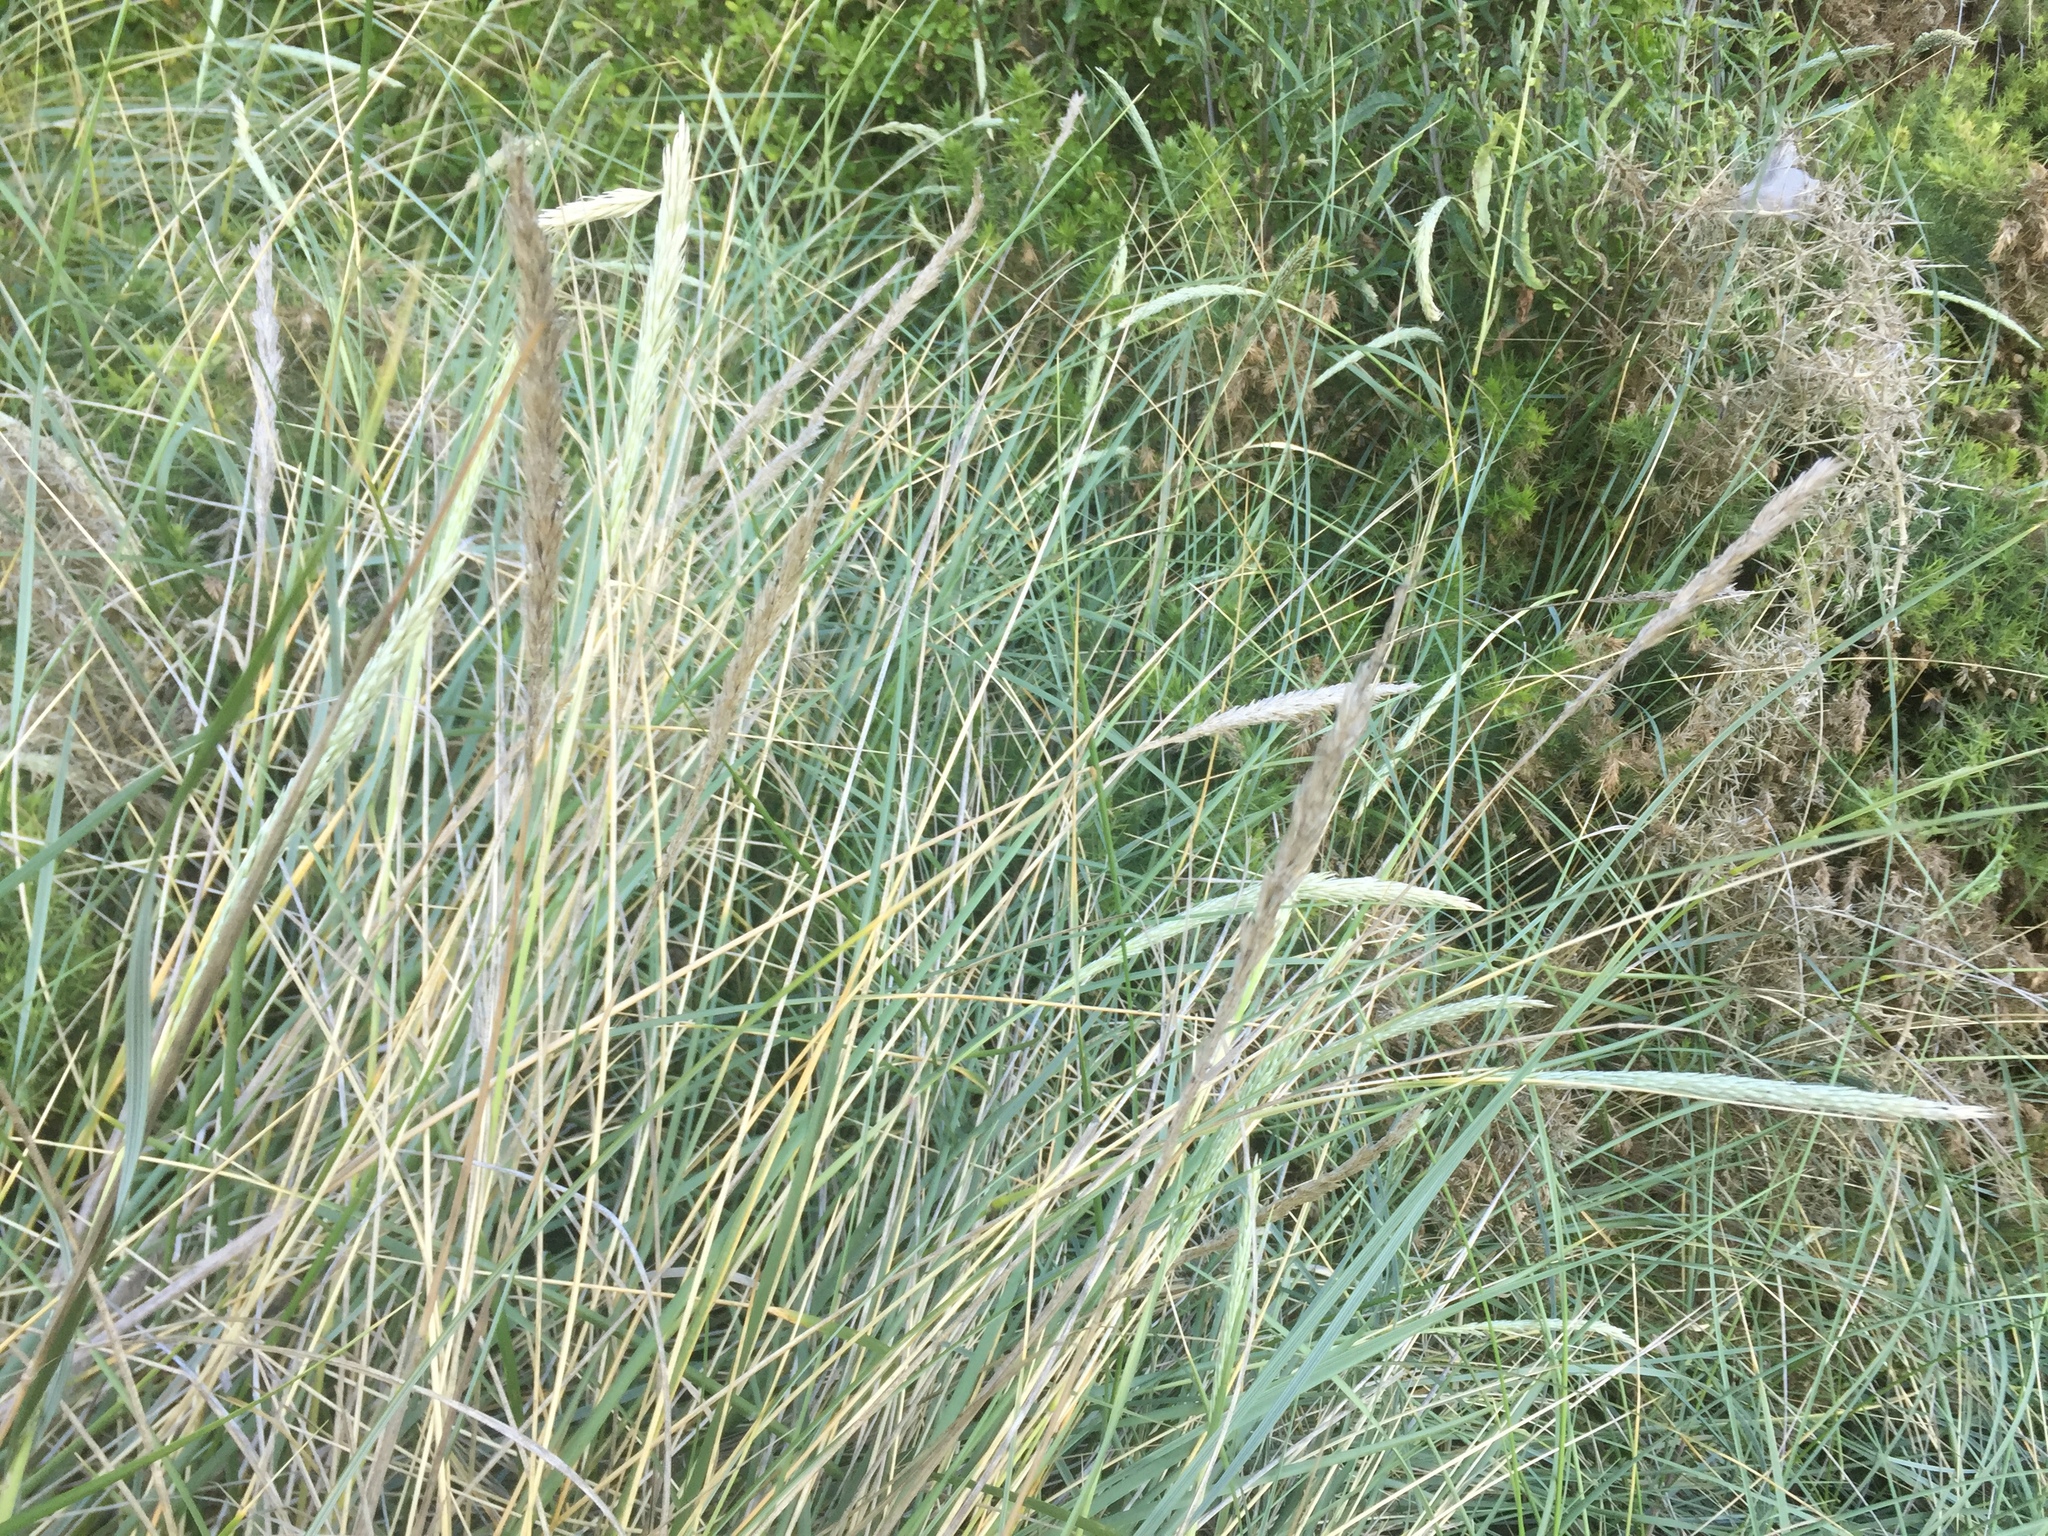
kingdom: Plantae
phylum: Tracheophyta
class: Liliopsida
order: Poales
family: Poaceae
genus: Calamagrostis
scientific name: Calamagrostis arenaria
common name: European beachgrass
